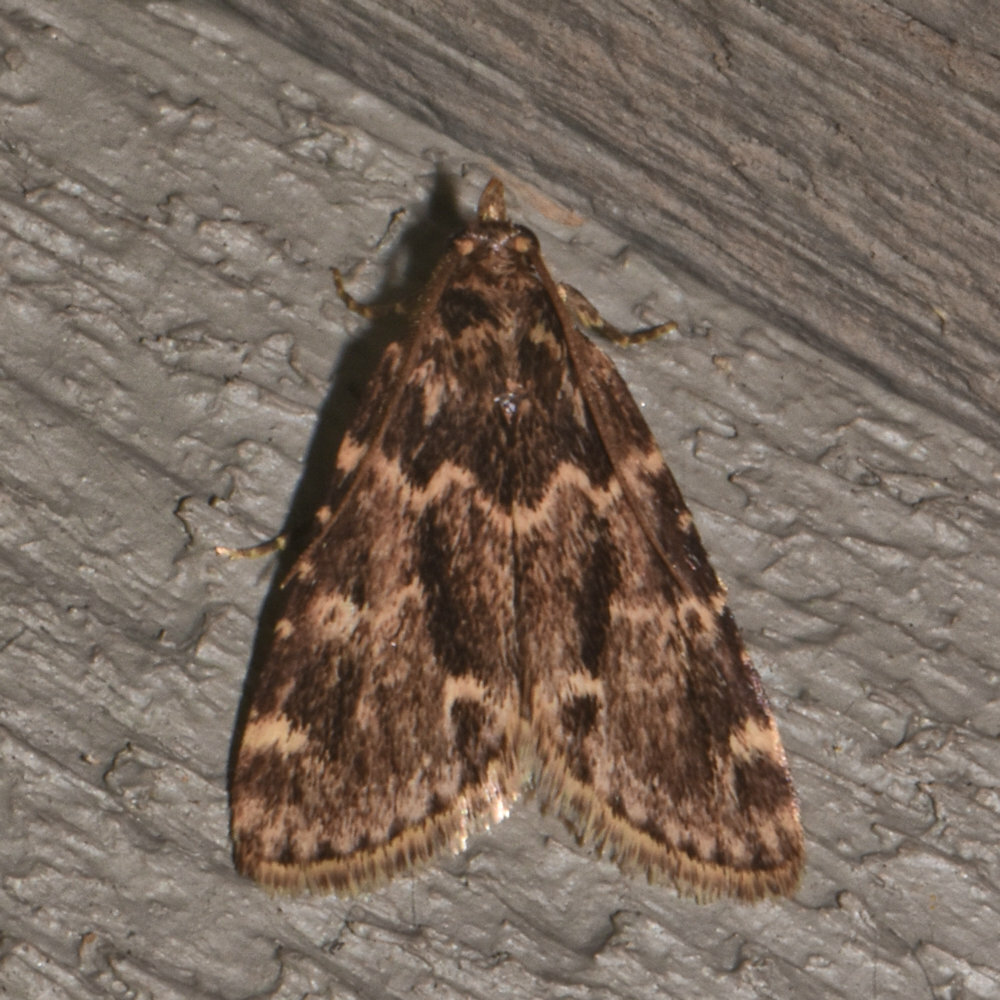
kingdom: Animalia
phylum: Arthropoda
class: Insecta
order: Lepidoptera
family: Pyralidae
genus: Aglossa
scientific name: Aglossa caprealis
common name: Small tabby
